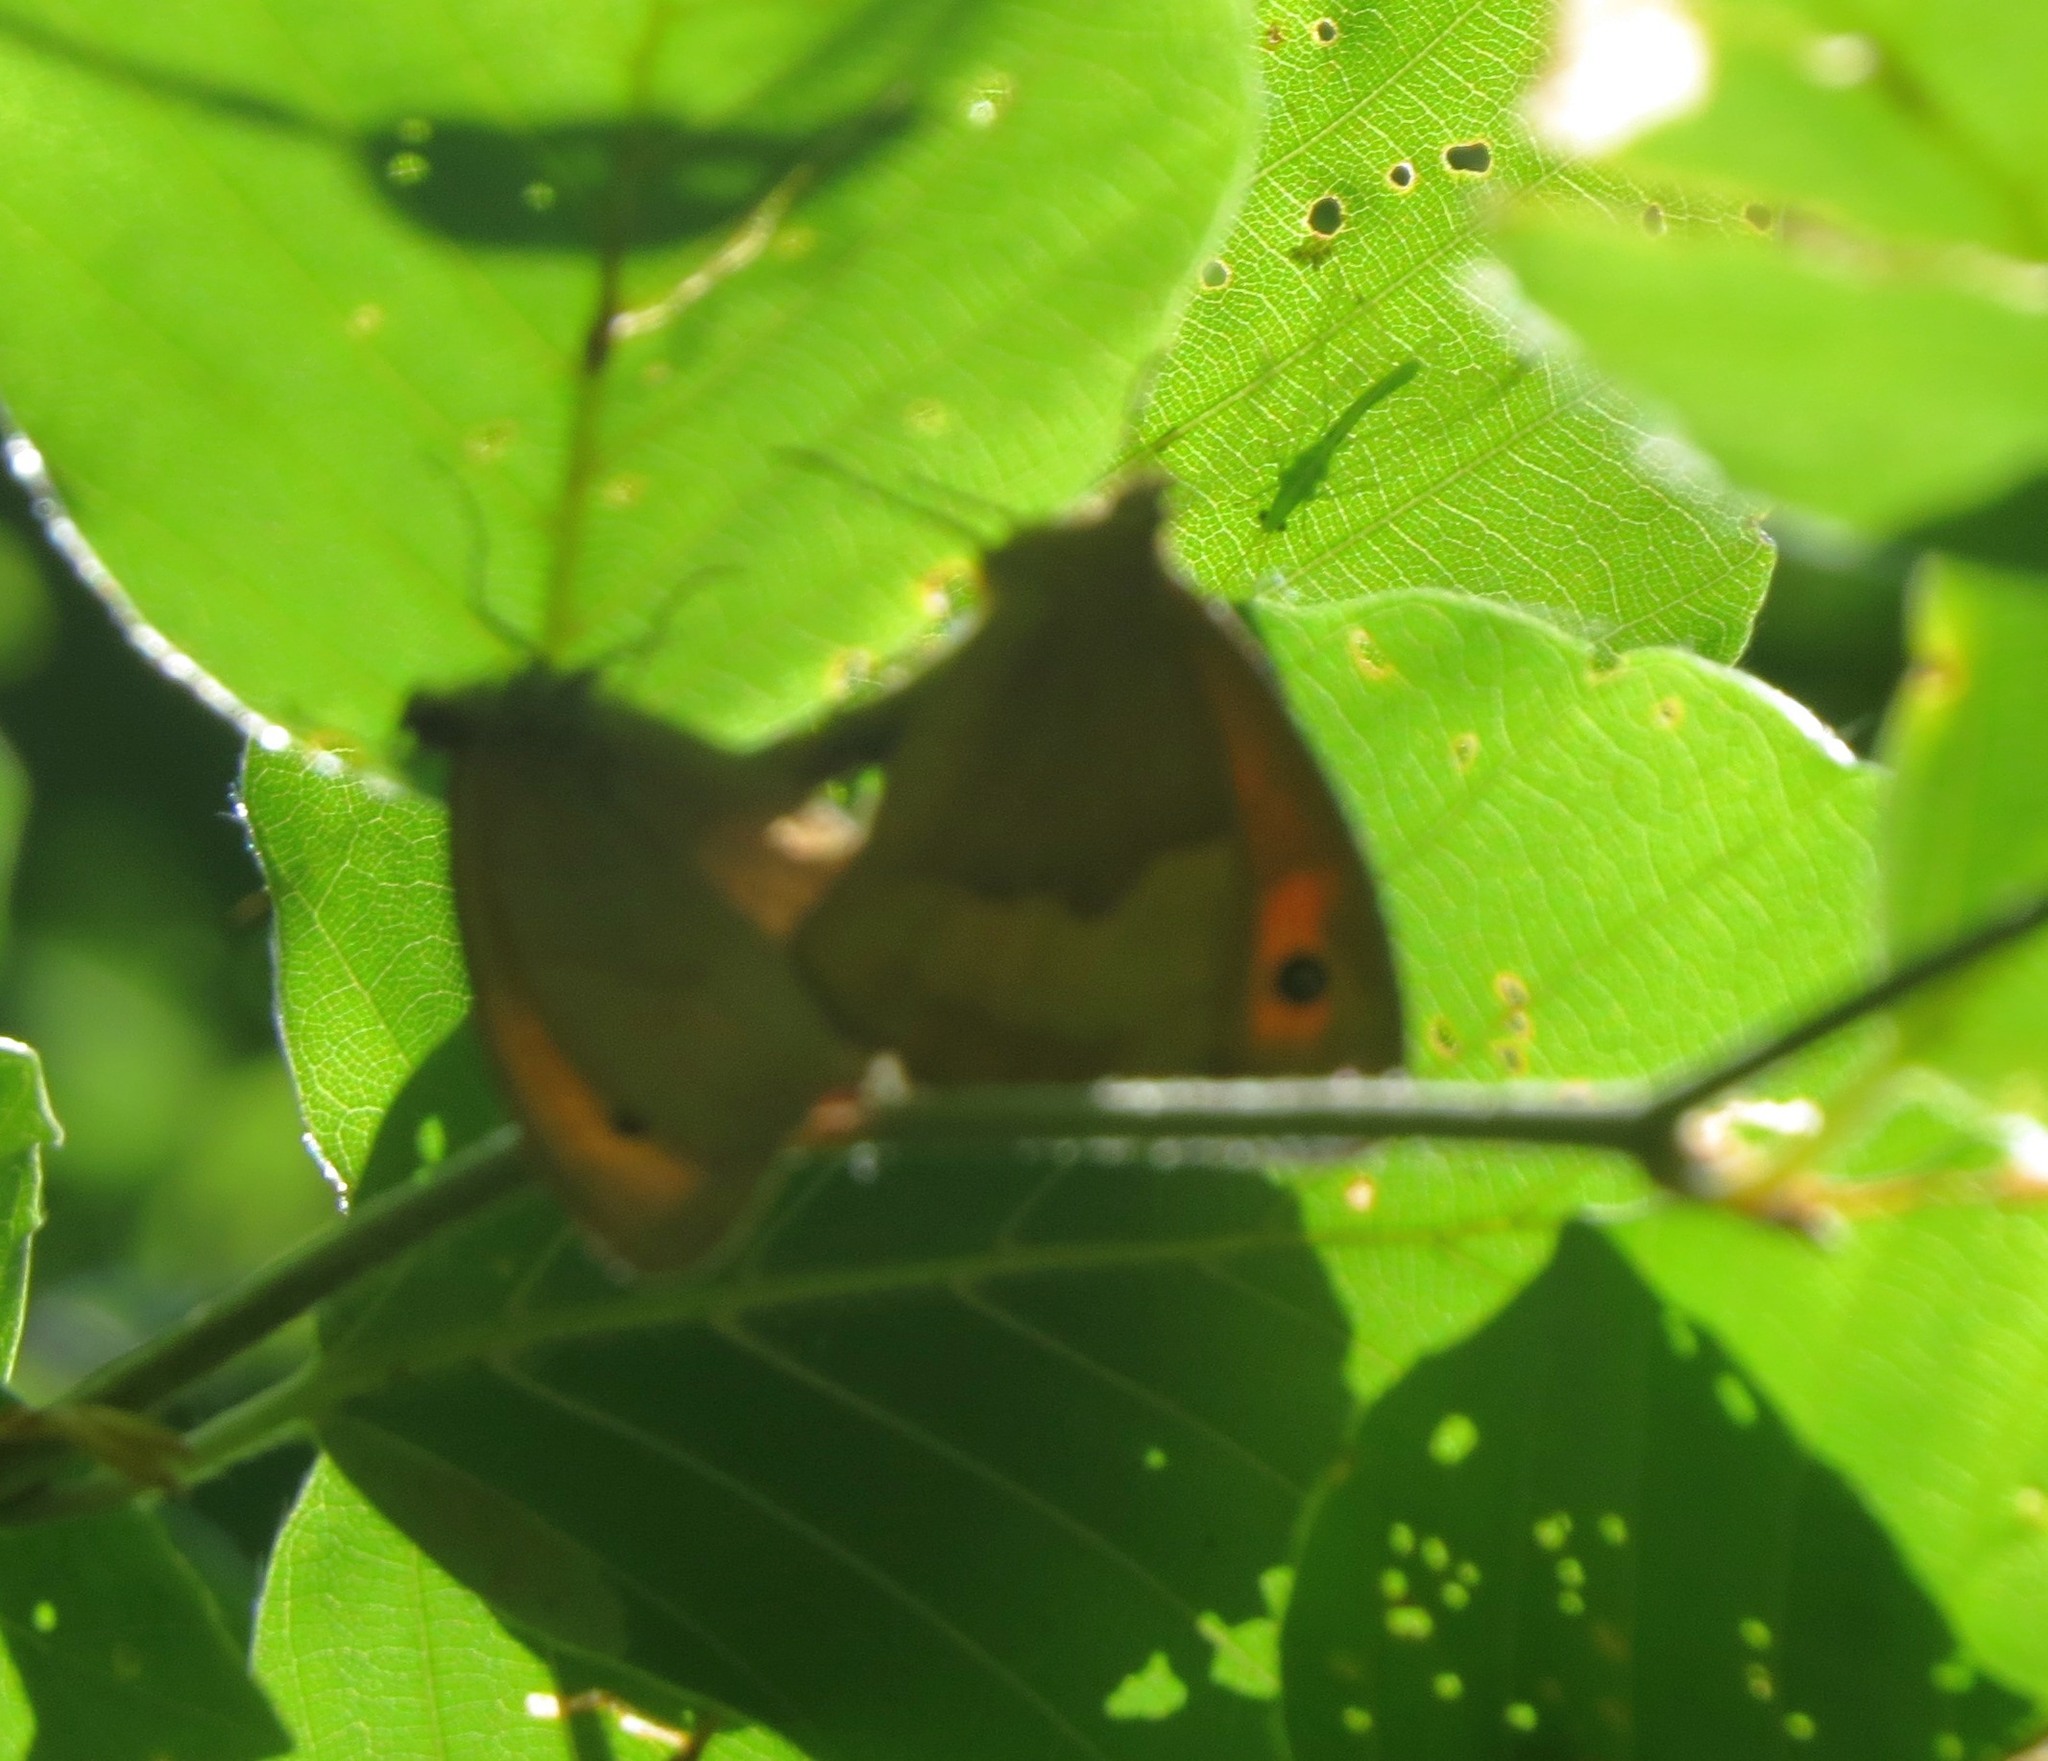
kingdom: Animalia
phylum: Arthropoda
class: Insecta
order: Lepidoptera
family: Nymphalidae
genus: Maniola
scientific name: Maniola jurtina
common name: Meadow brown
